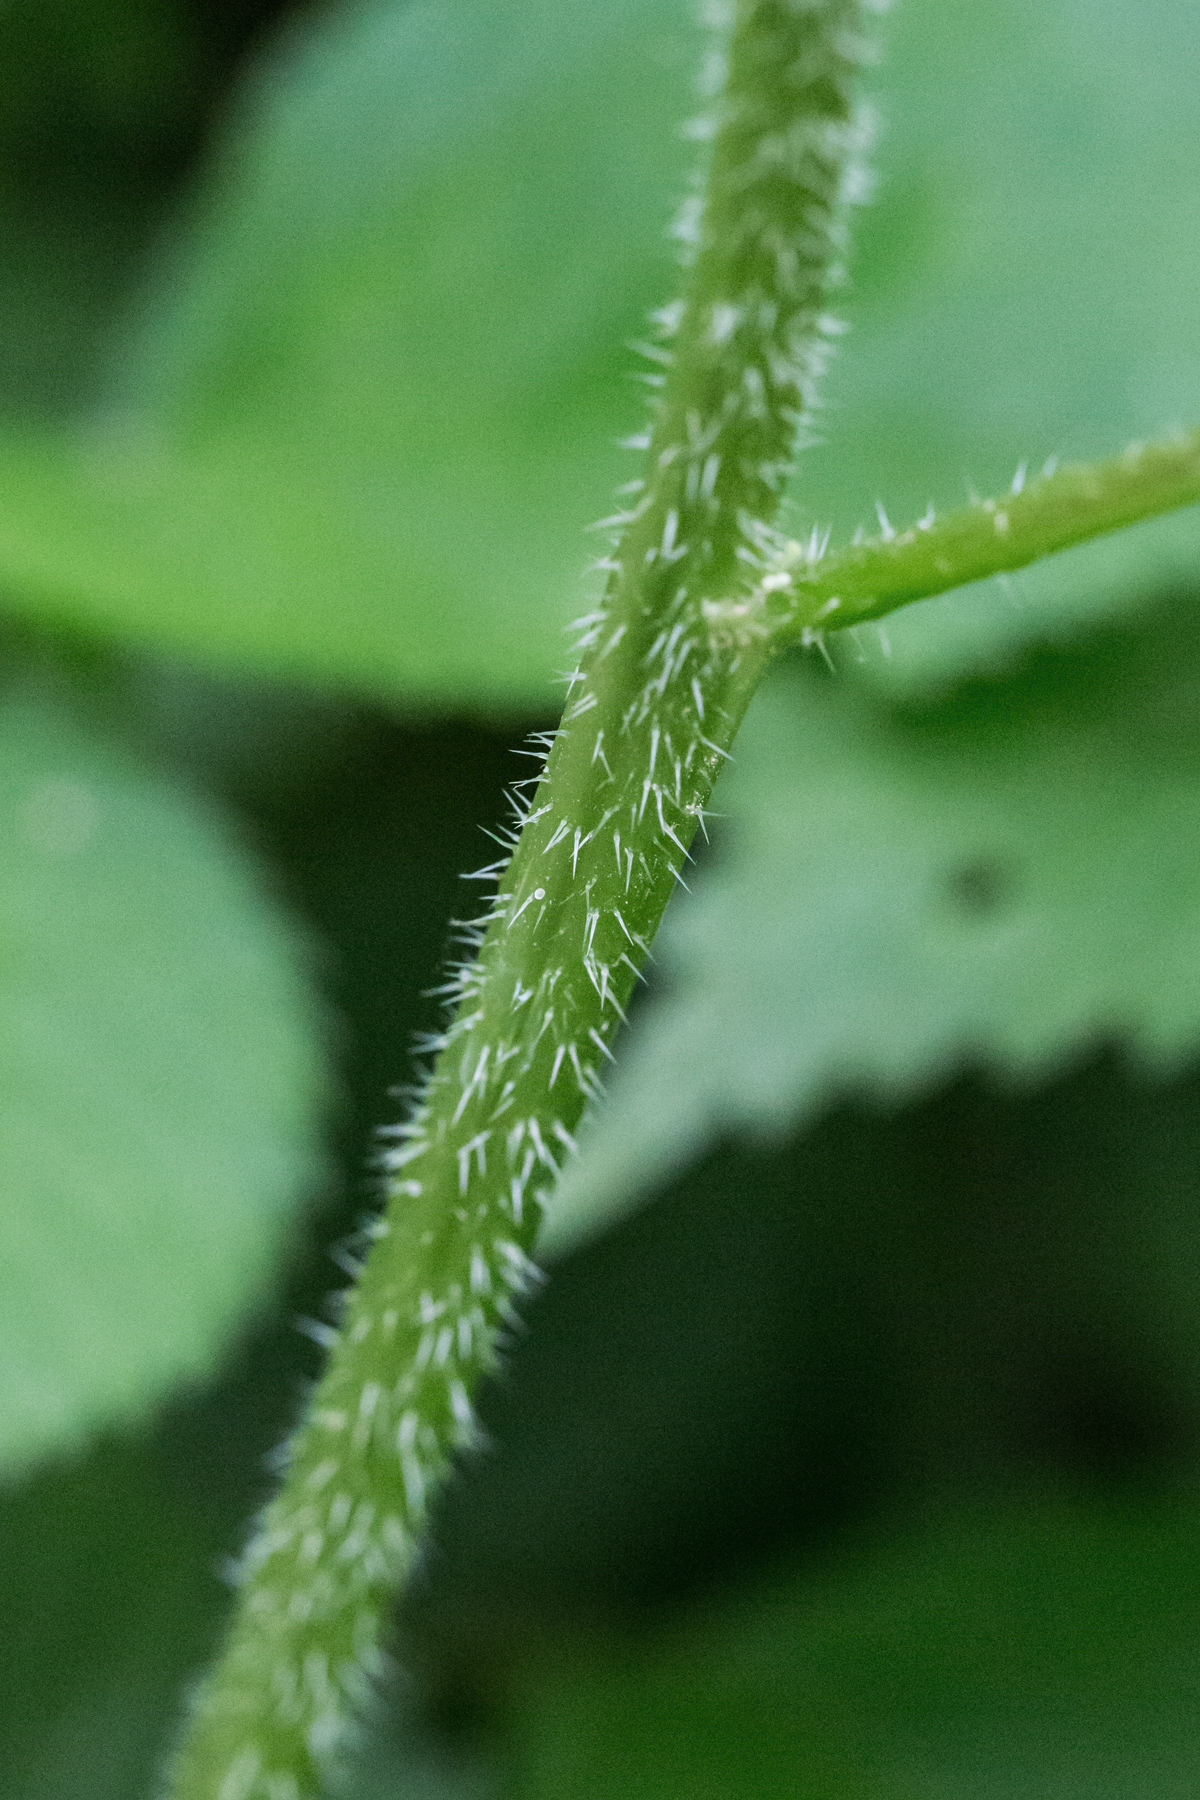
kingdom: Plantae
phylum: Tracheophyta
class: Magnoliopsida
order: Rosales
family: Urticaceae
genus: Laportea
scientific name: Laportea canadensis
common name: Canada nettle
